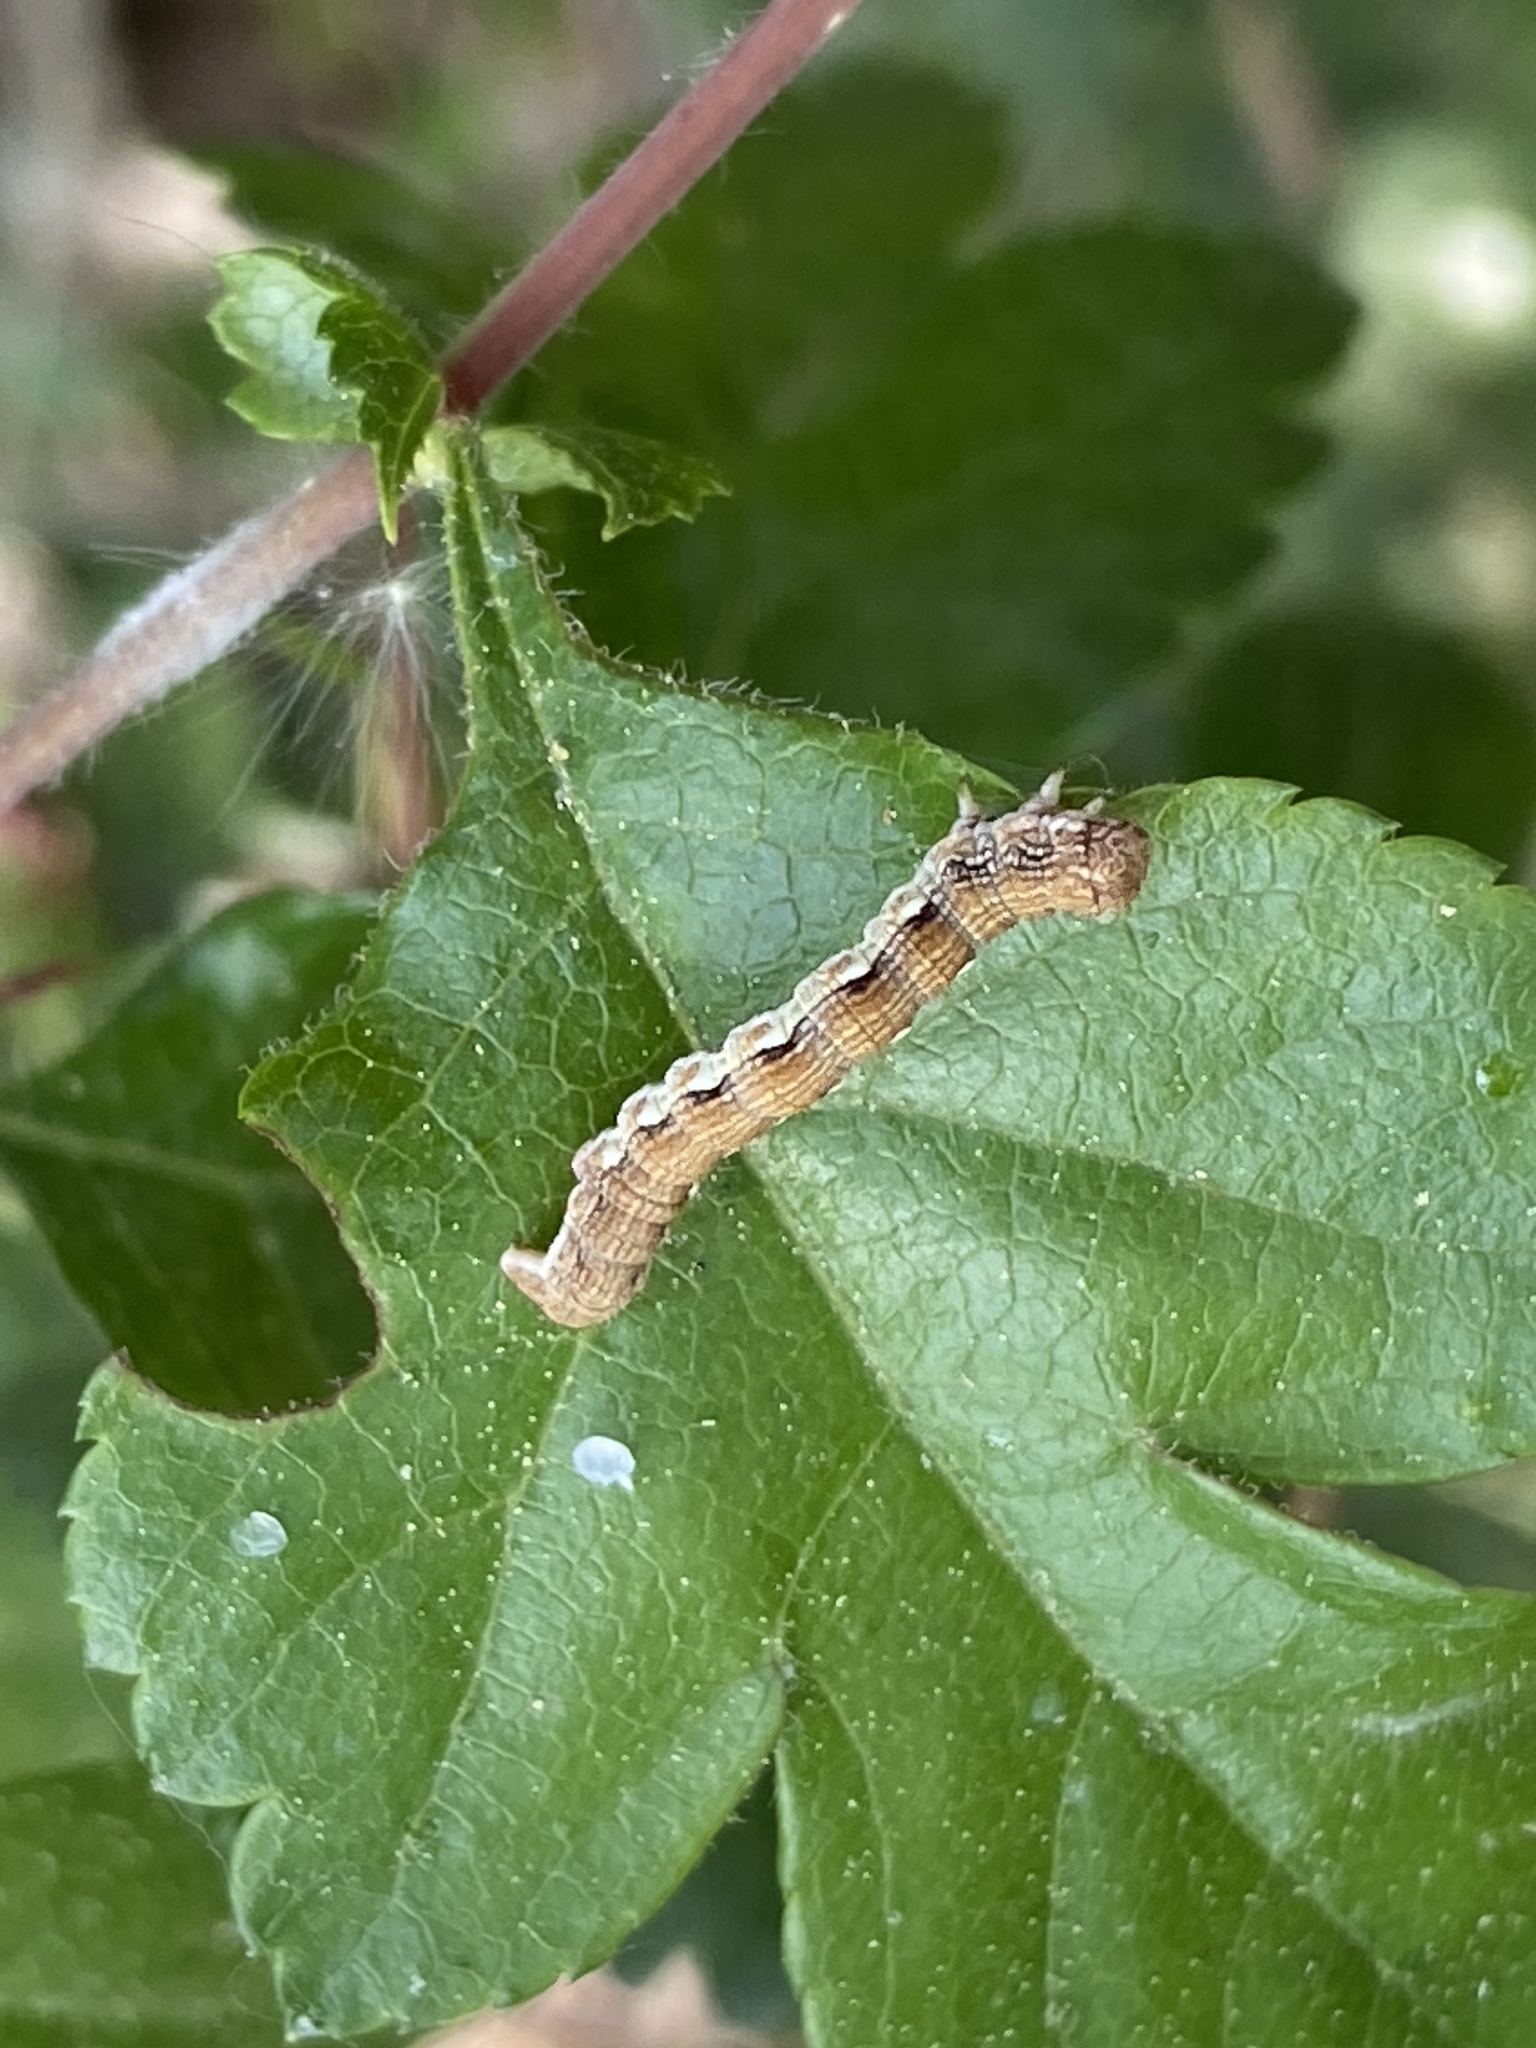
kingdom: Animalia
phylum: Arthropoda
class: Insecta
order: Lepidoptera
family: Geometridae
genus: Erannis
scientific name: Erannis defoliaria
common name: Mottled umber
